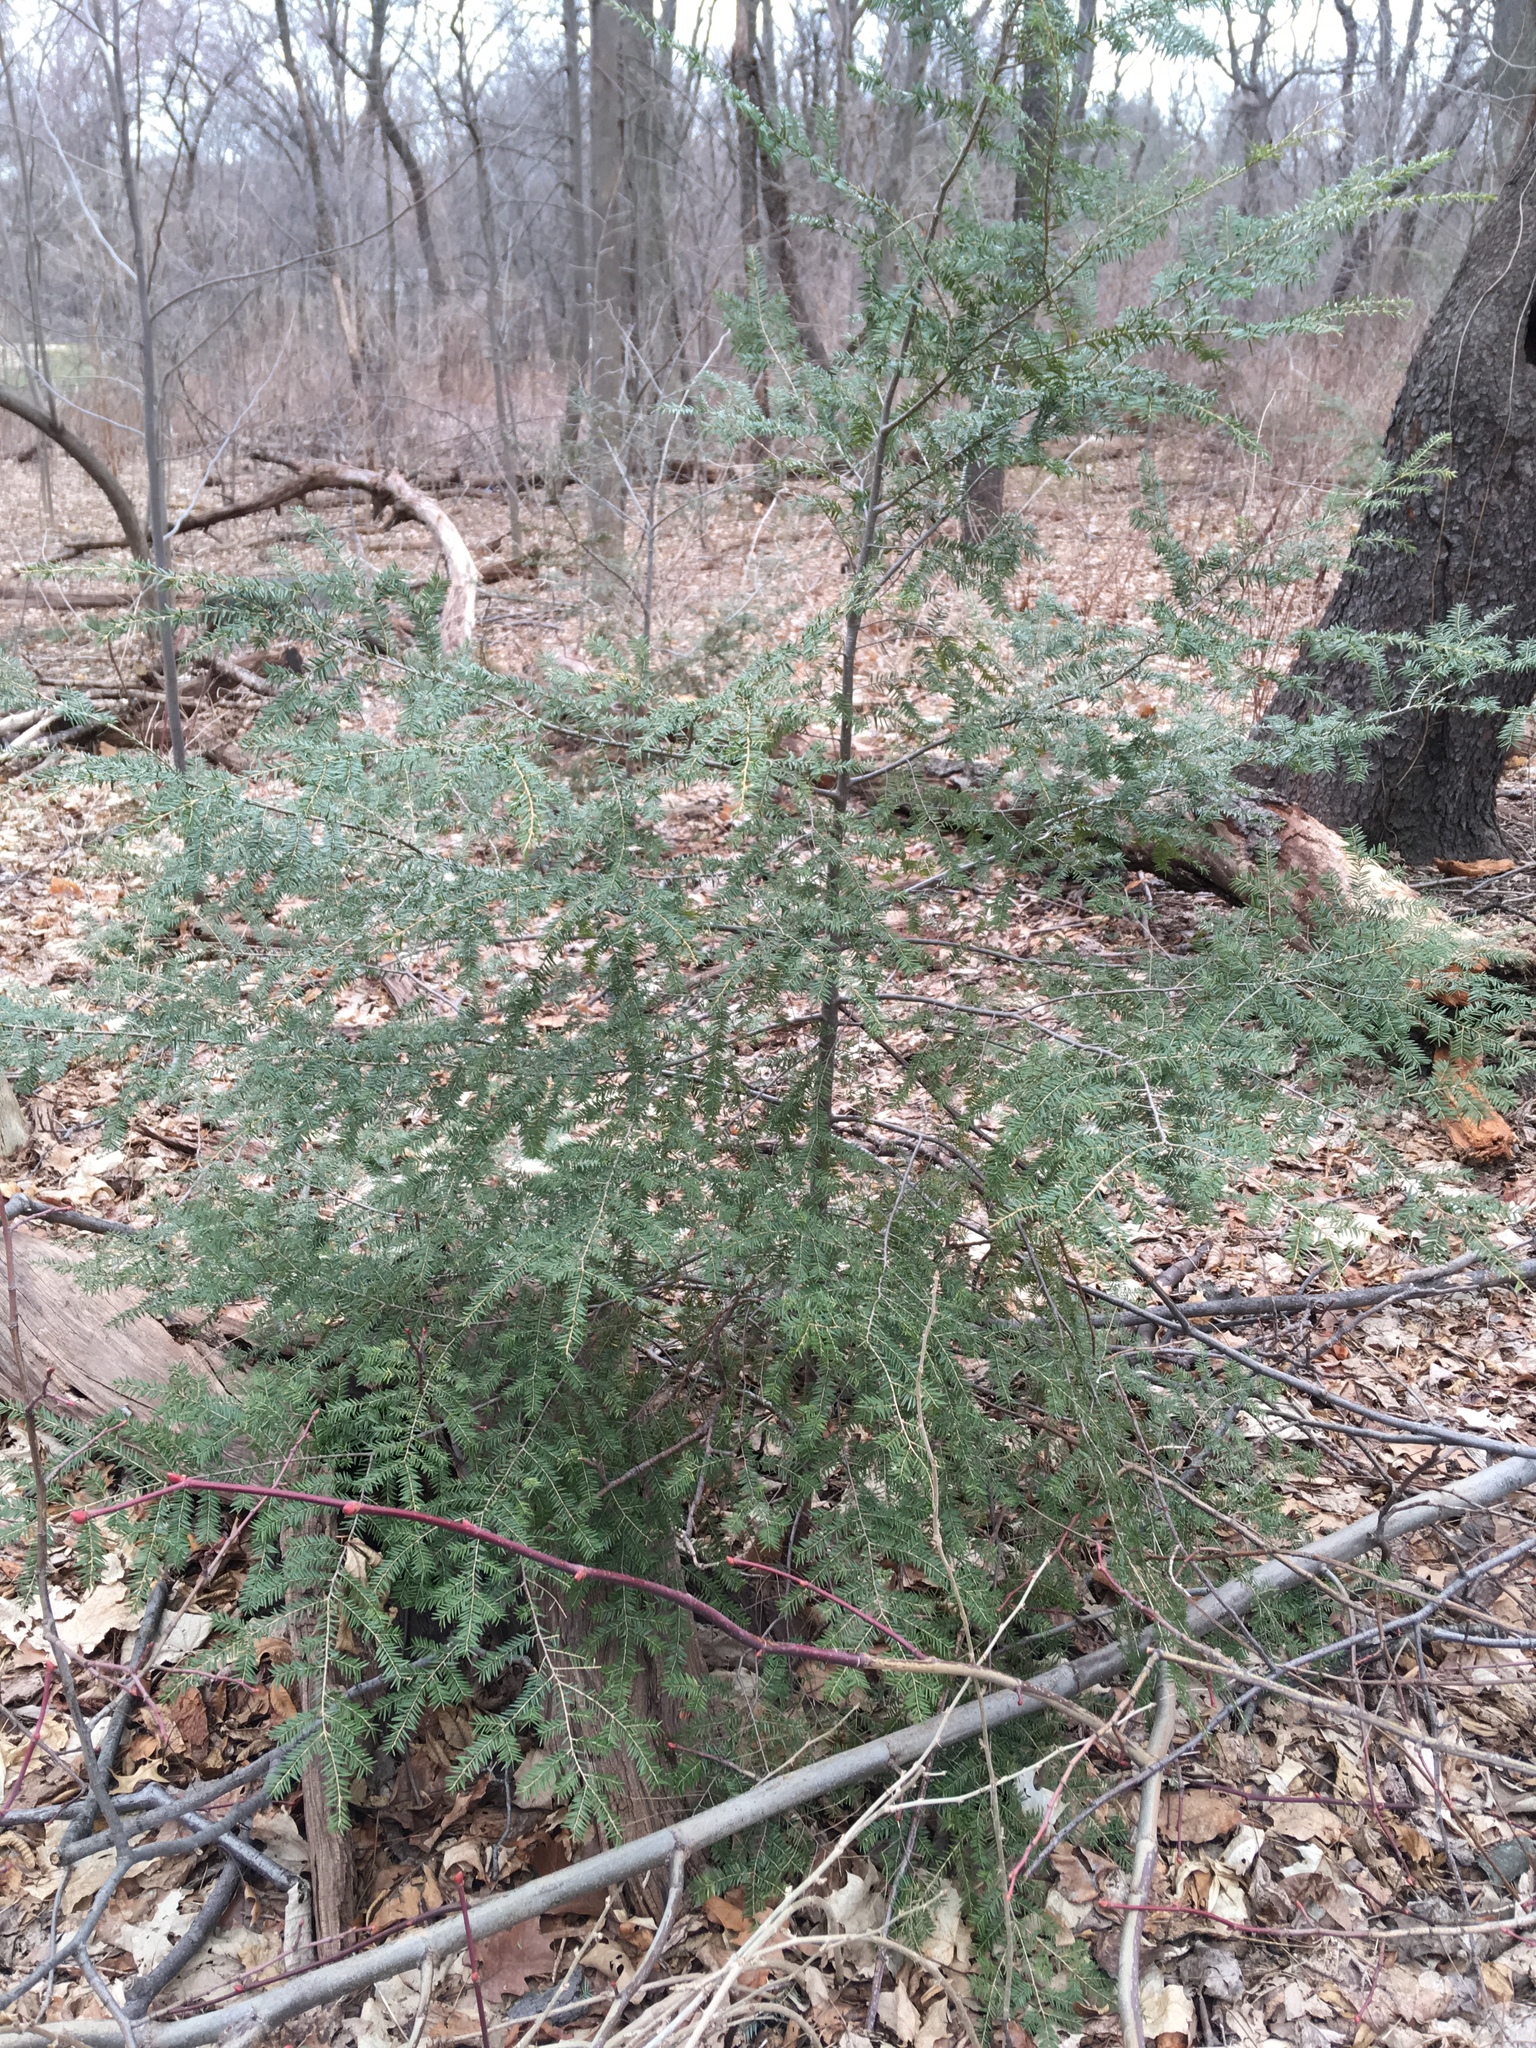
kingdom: Plantae
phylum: Tracheophyta
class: Pinopsida
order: Pinales
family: Pinaceae
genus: Tsuga
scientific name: Tsuga canadensis
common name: Eastern hemlock
